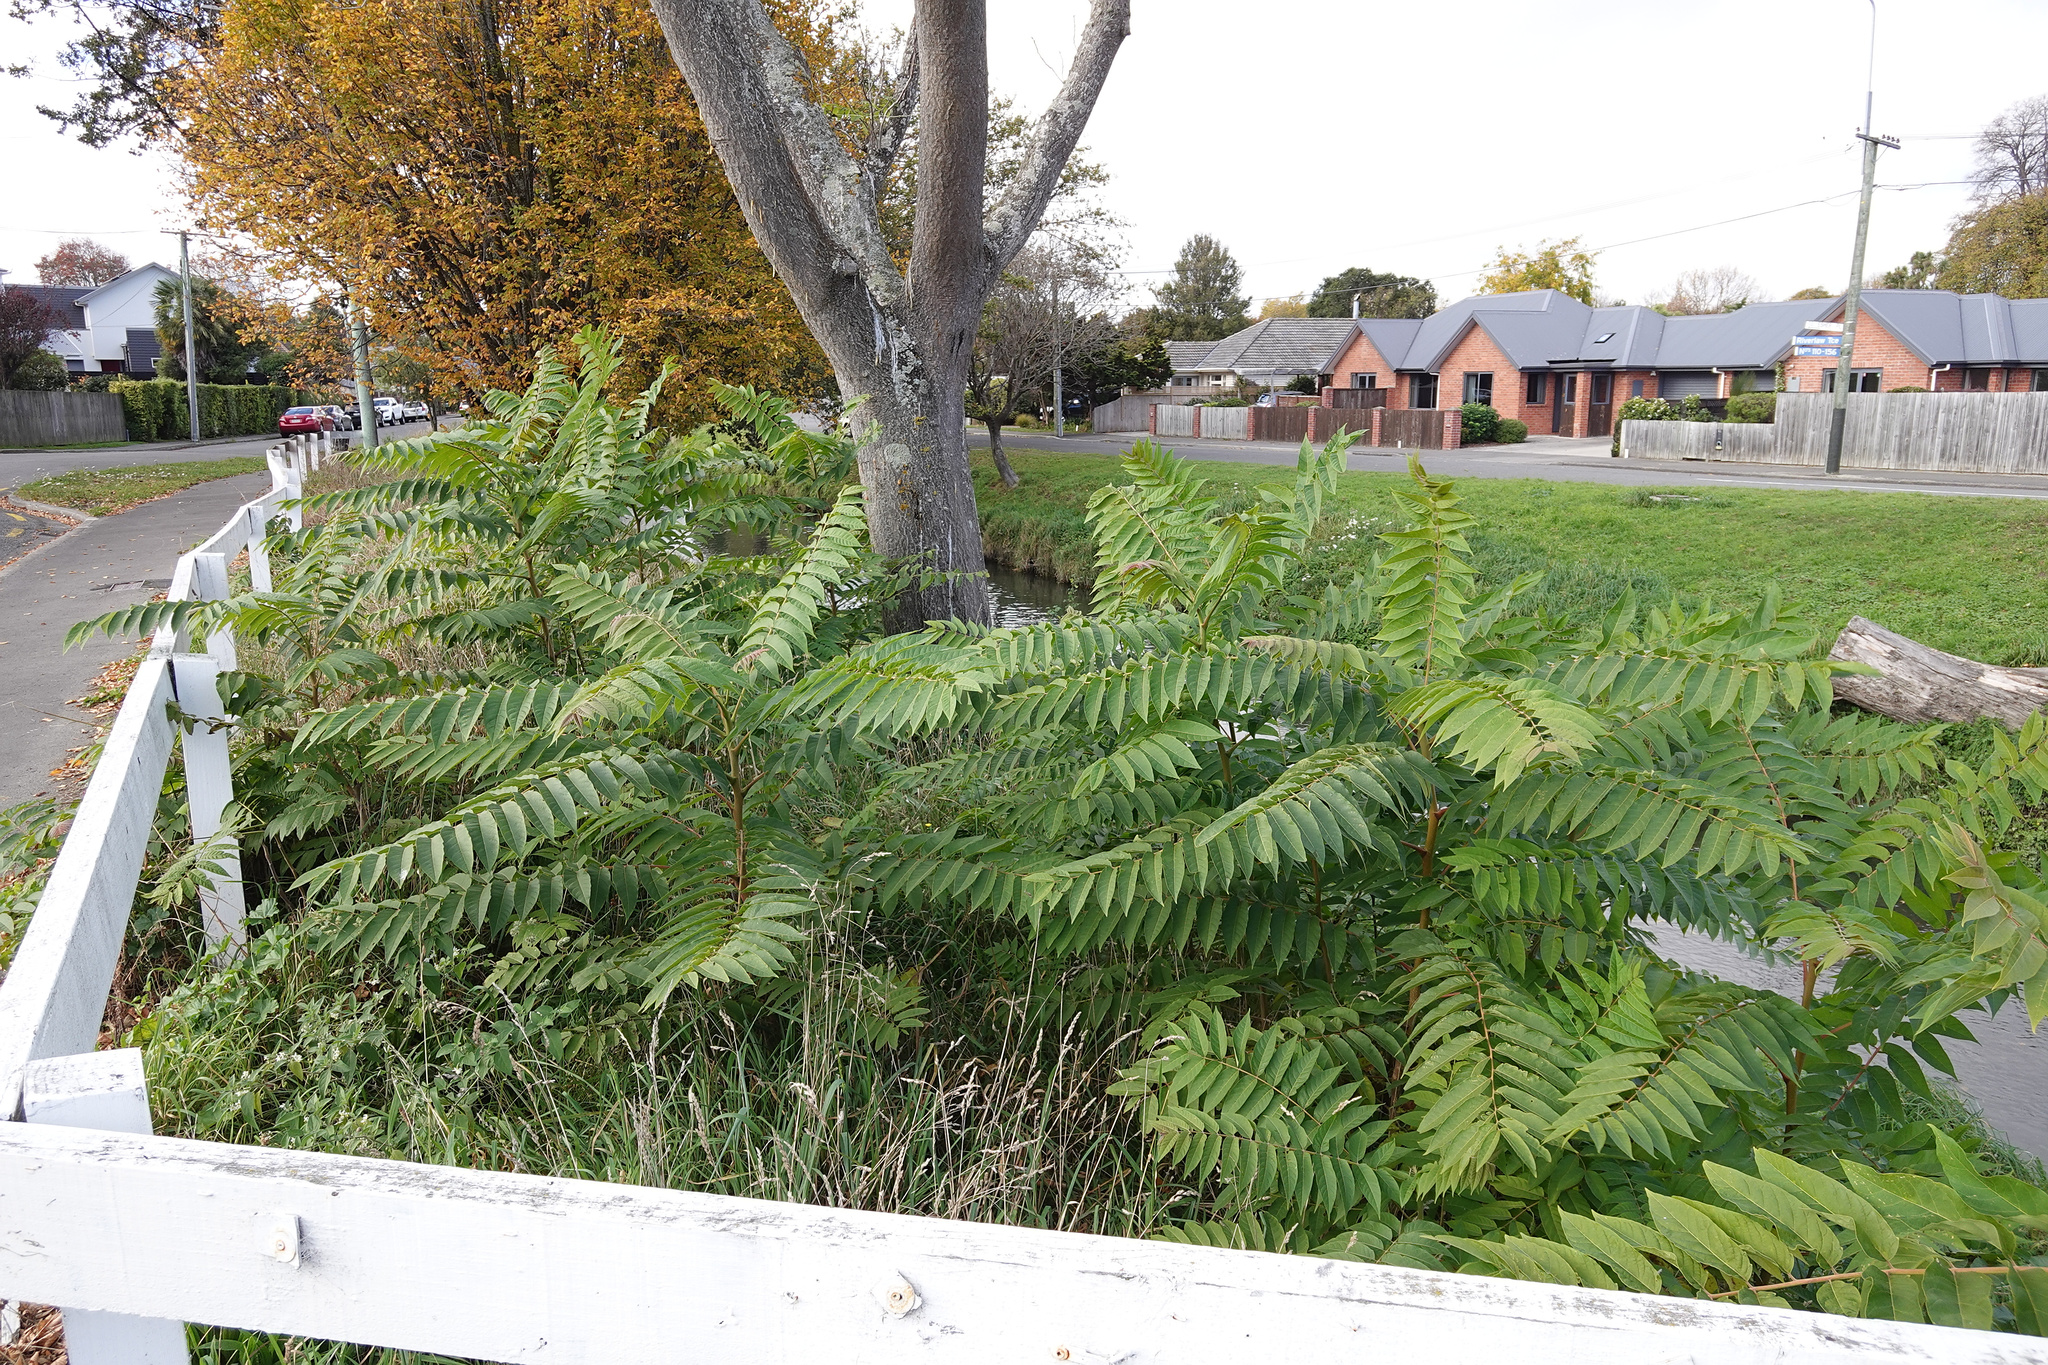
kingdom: Plantae
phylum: Tracheophyta
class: Magnoliopsida
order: Sapindales
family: Simaroubaceae
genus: Ailanthus
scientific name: Ailanthus altissima
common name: Tree-of-heaven
